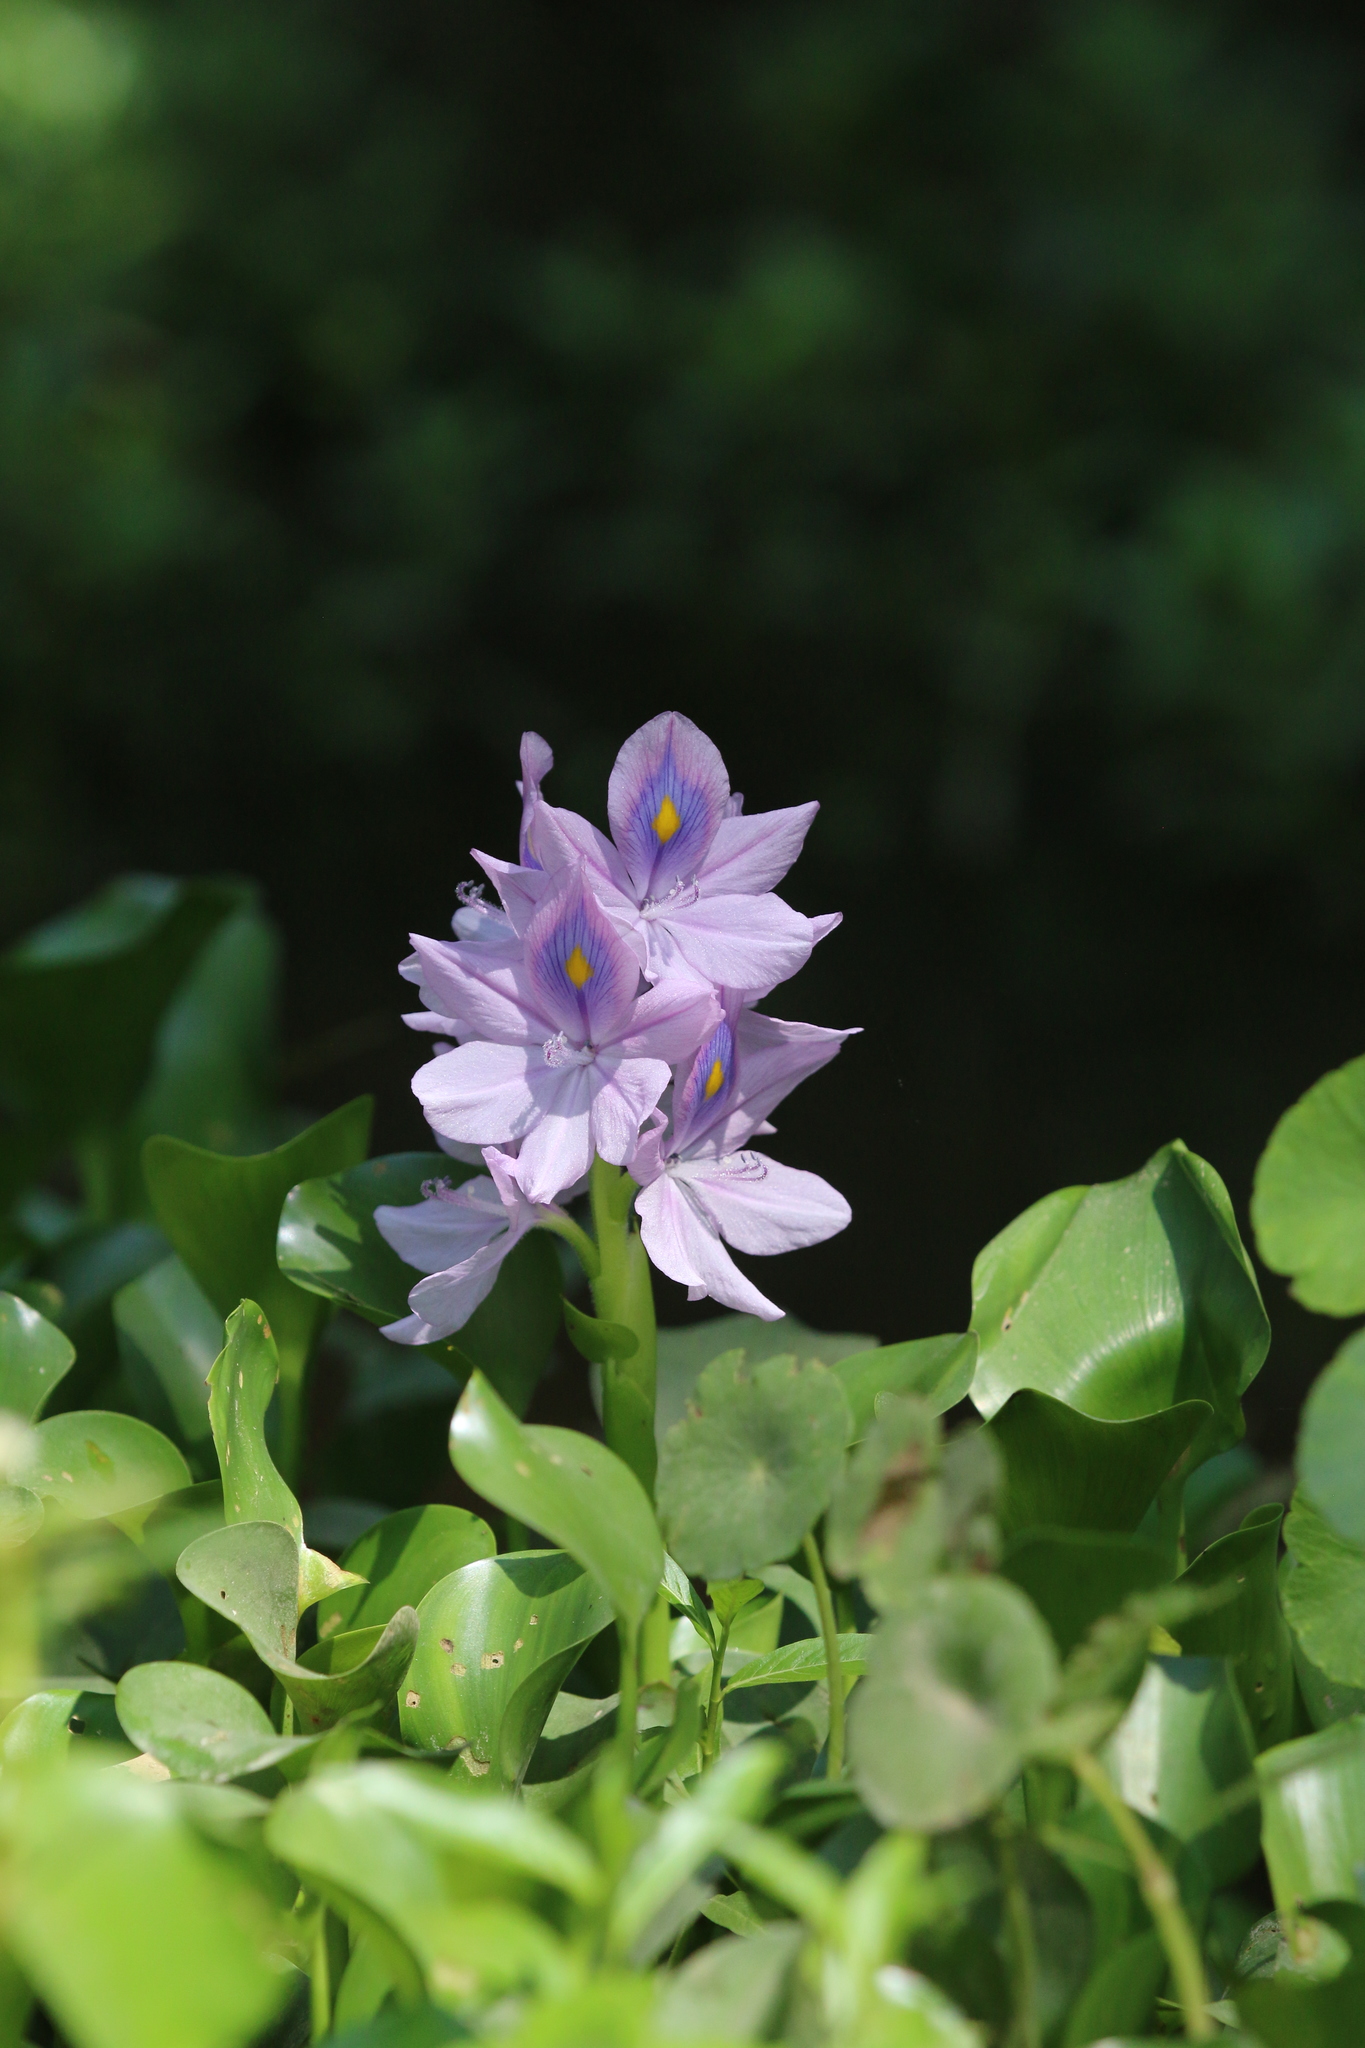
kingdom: Plantae
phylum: Tracheophyta
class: Liliopsida
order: Commelinales
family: Pontederiaceae
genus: Pontederia
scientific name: Pontederia crassipes
